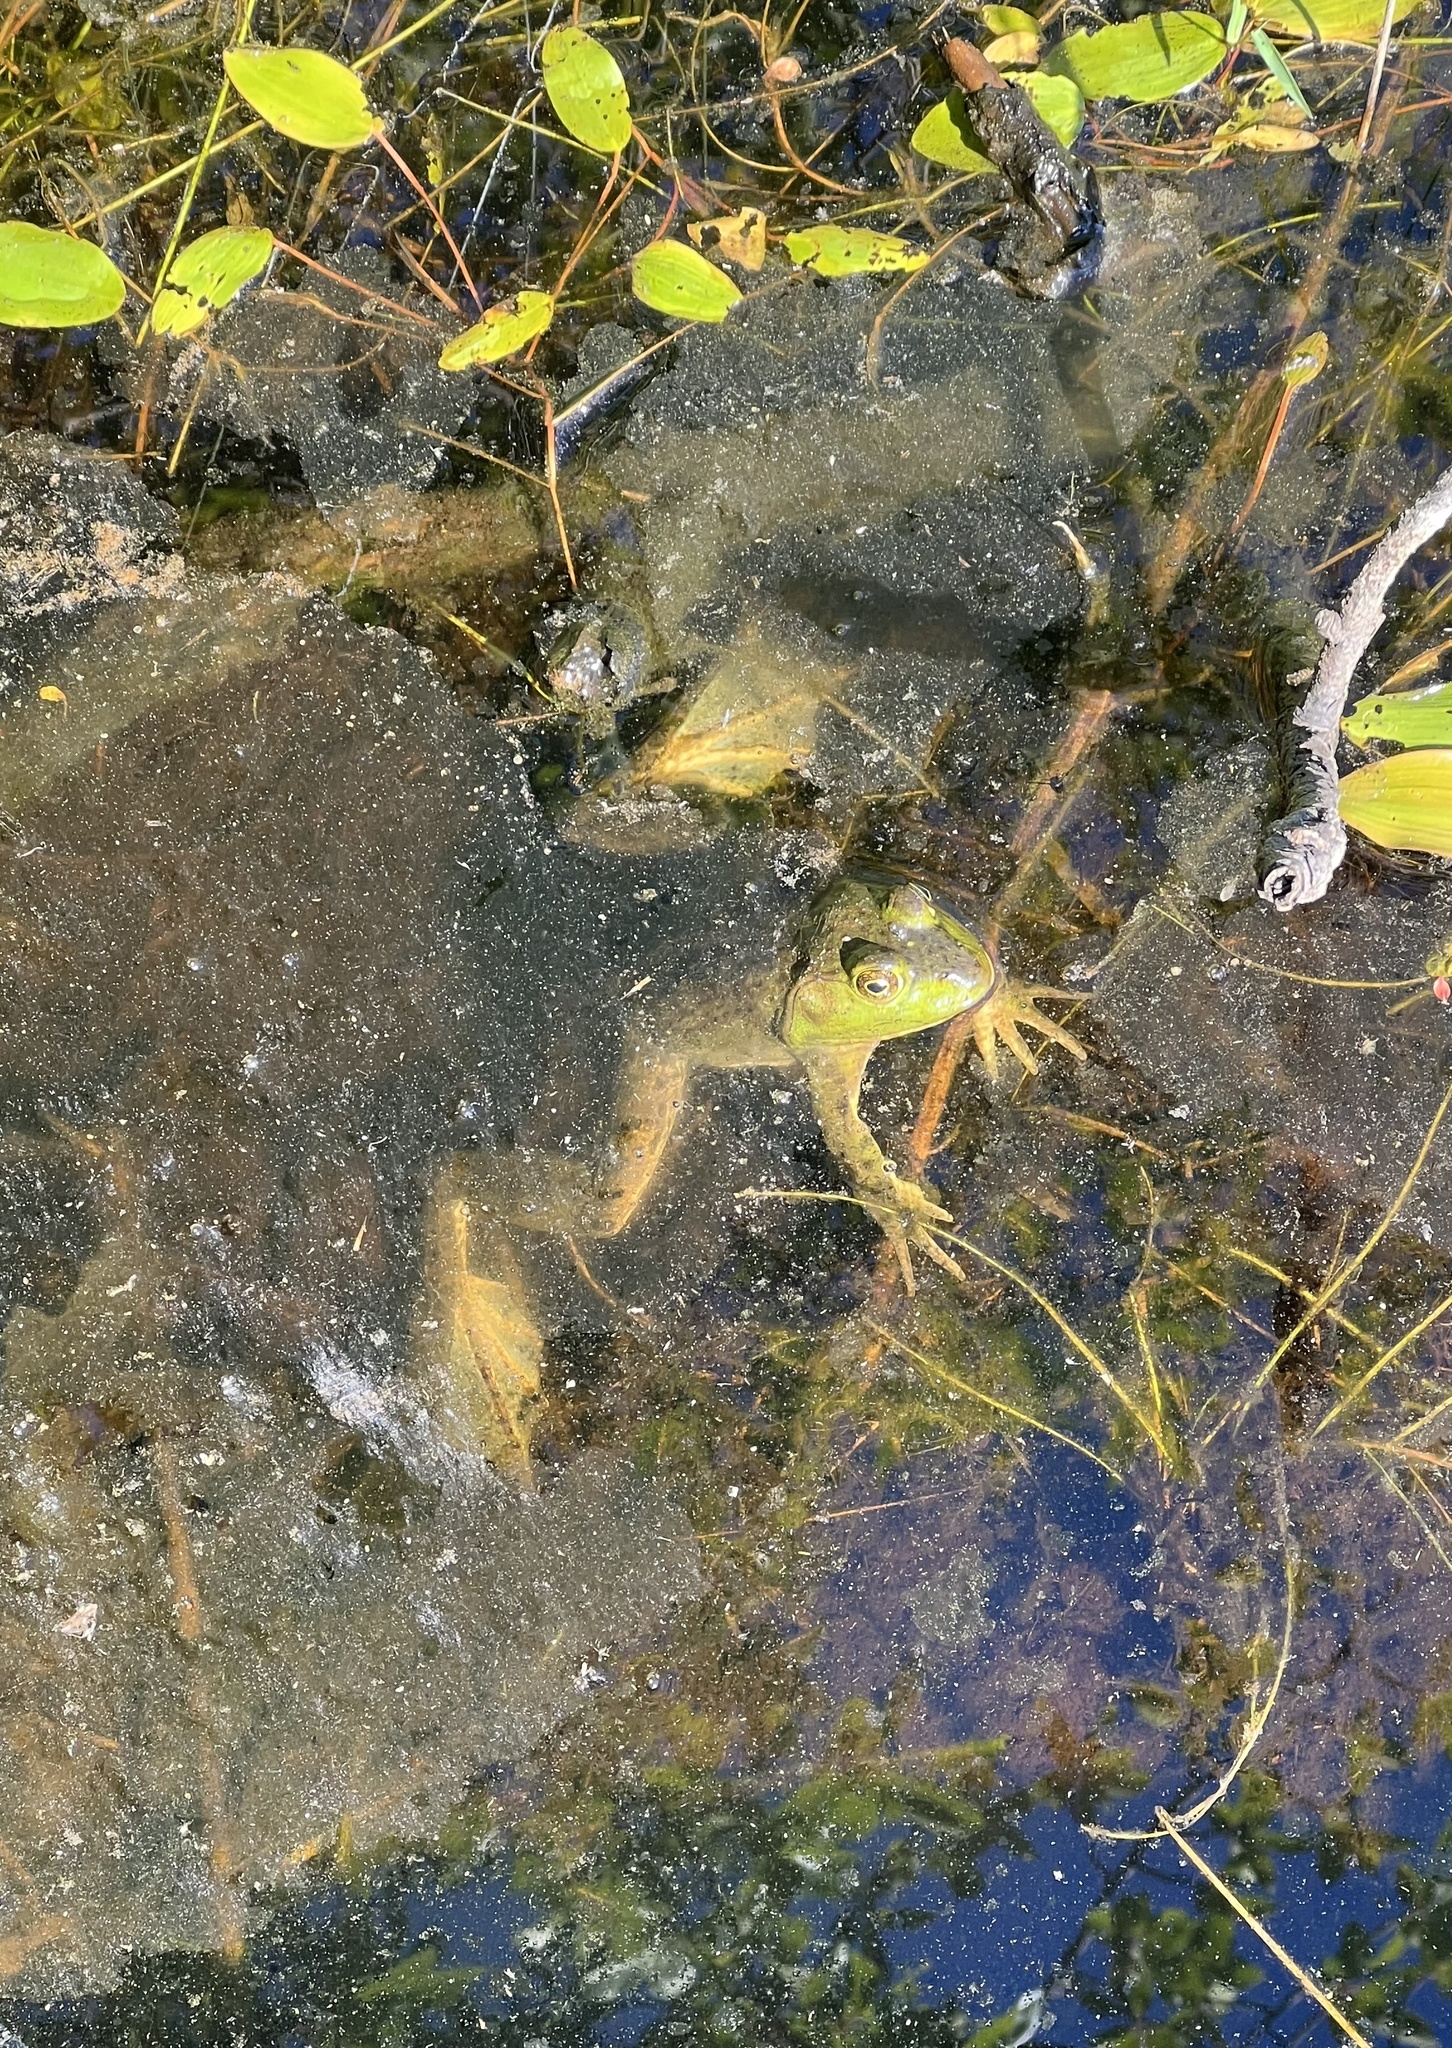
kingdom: Animalia
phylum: Chordata
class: Amphibia
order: Anura
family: Ranidae
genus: Lithobates
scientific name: Lithobates catesbeianus
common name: American bullfrog
